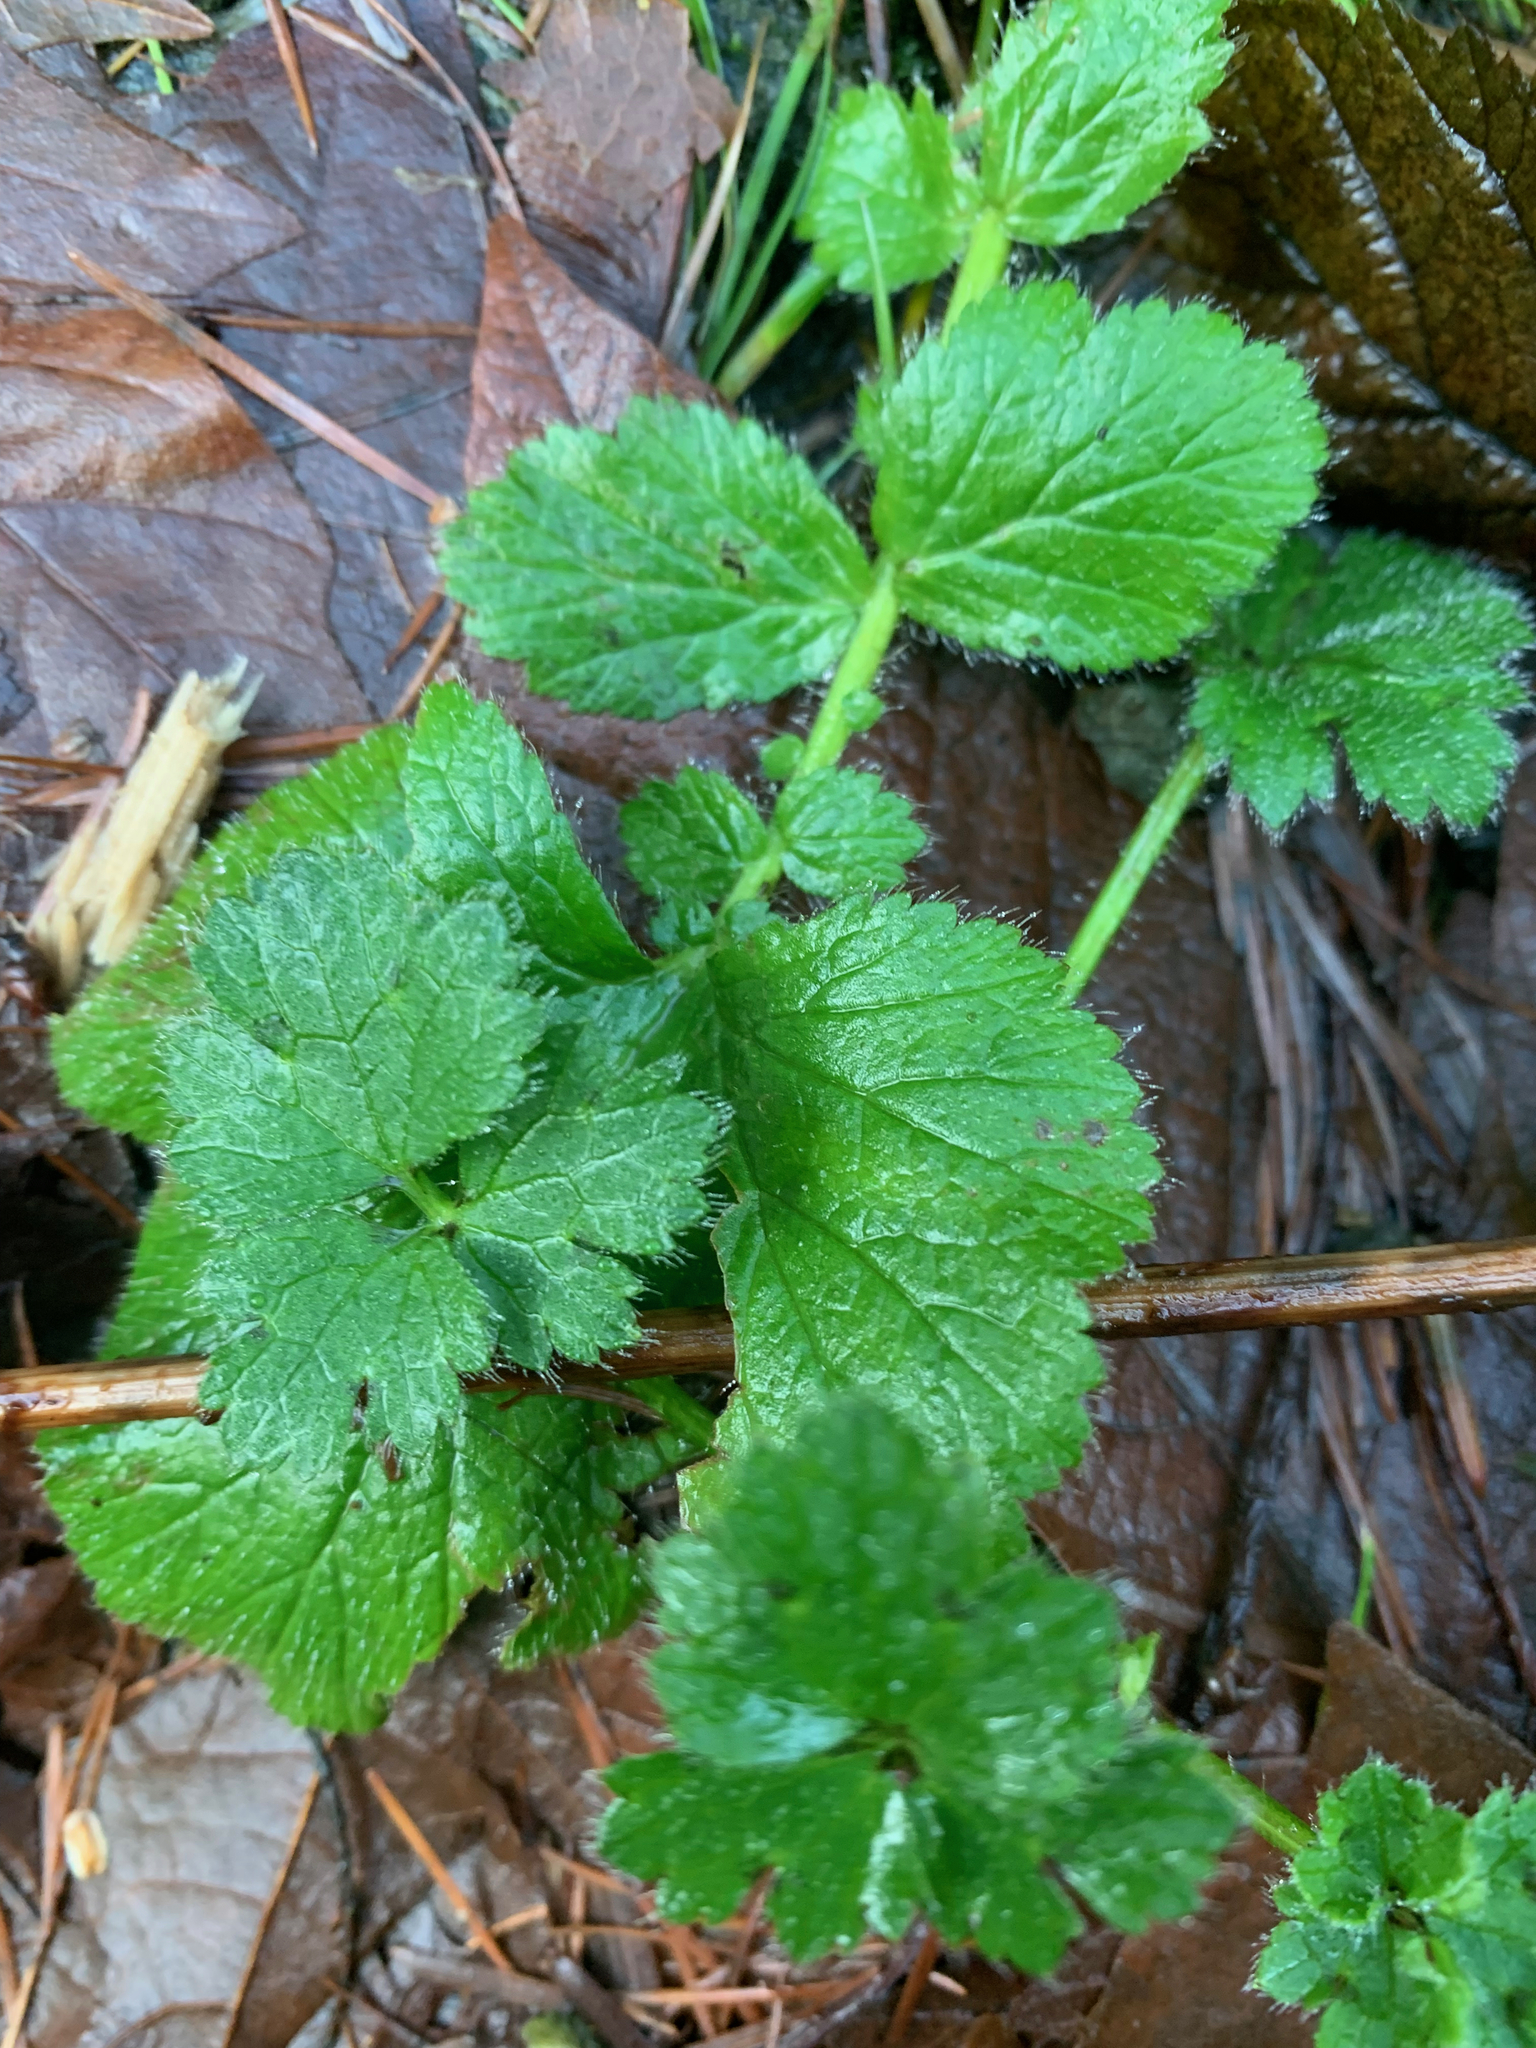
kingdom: Plantae
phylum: Tracheophyta
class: Magnoliopsida
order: Rosales
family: Rosaceae
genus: Geum
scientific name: Geum macrophyllum
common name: Large-leaved avens
